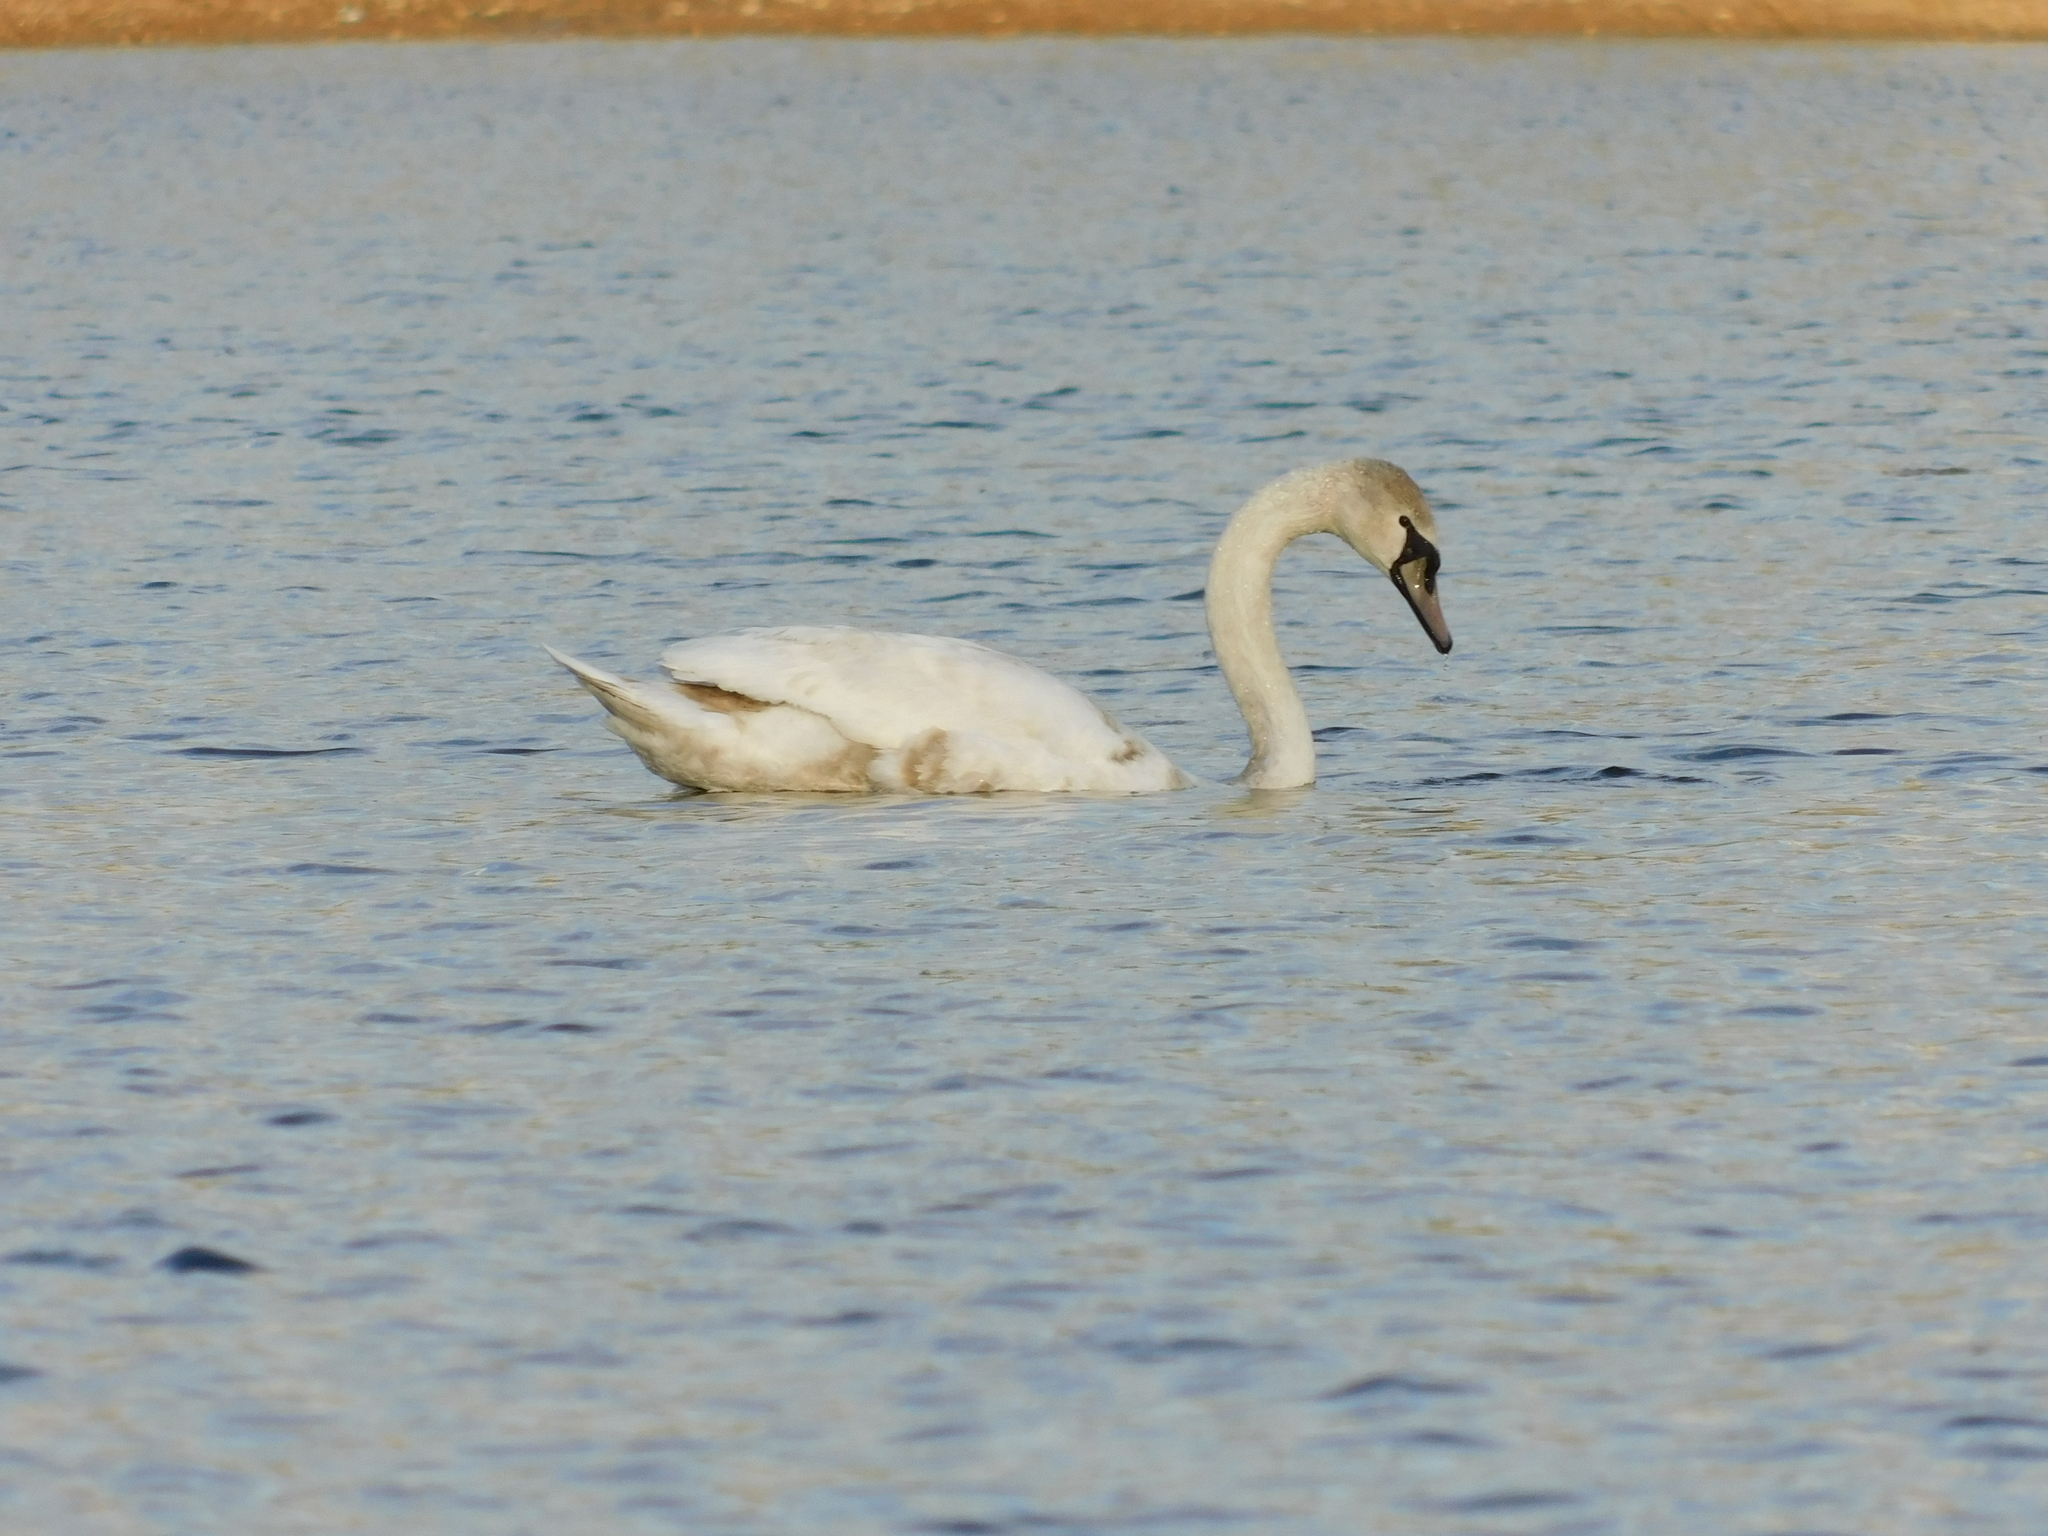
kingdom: Animalia
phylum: Chordata
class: Aves
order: Anseriformes
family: Anatidae
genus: Cygnus
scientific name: Cygnus olor
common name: Mute swan
